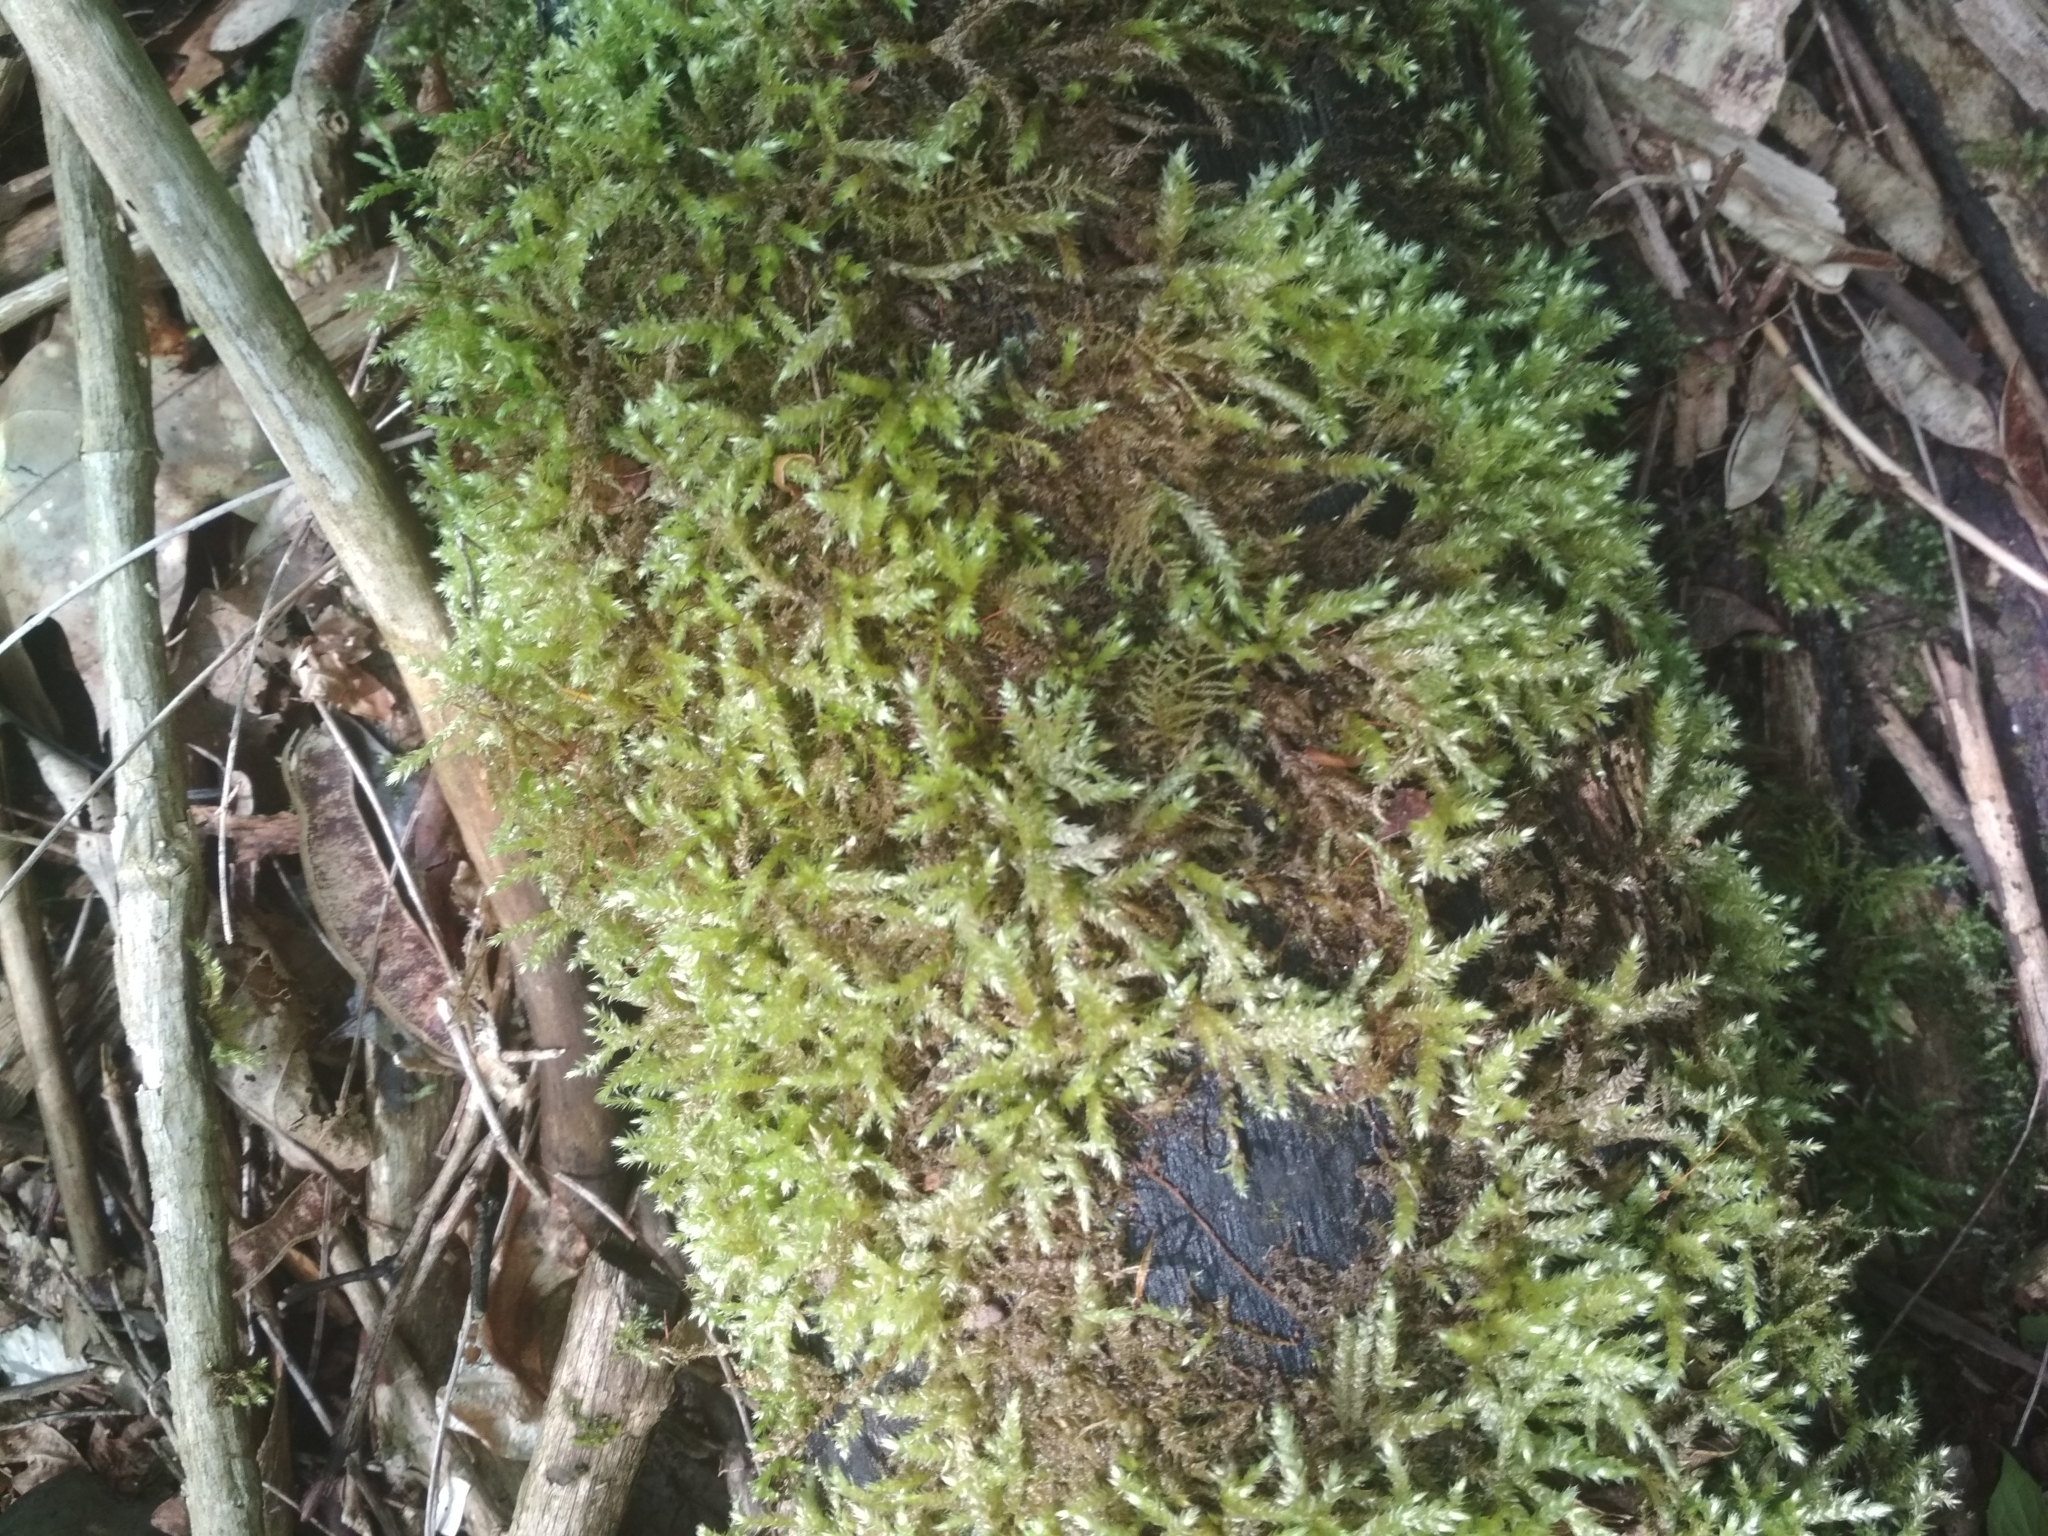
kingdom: Plantae
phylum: Bryophyta
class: Bryopsida
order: Hypnales
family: Brachytheciaceae
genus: Brachythecium
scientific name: Brachythecium rutabulum
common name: Rough-stalked feather-moss
